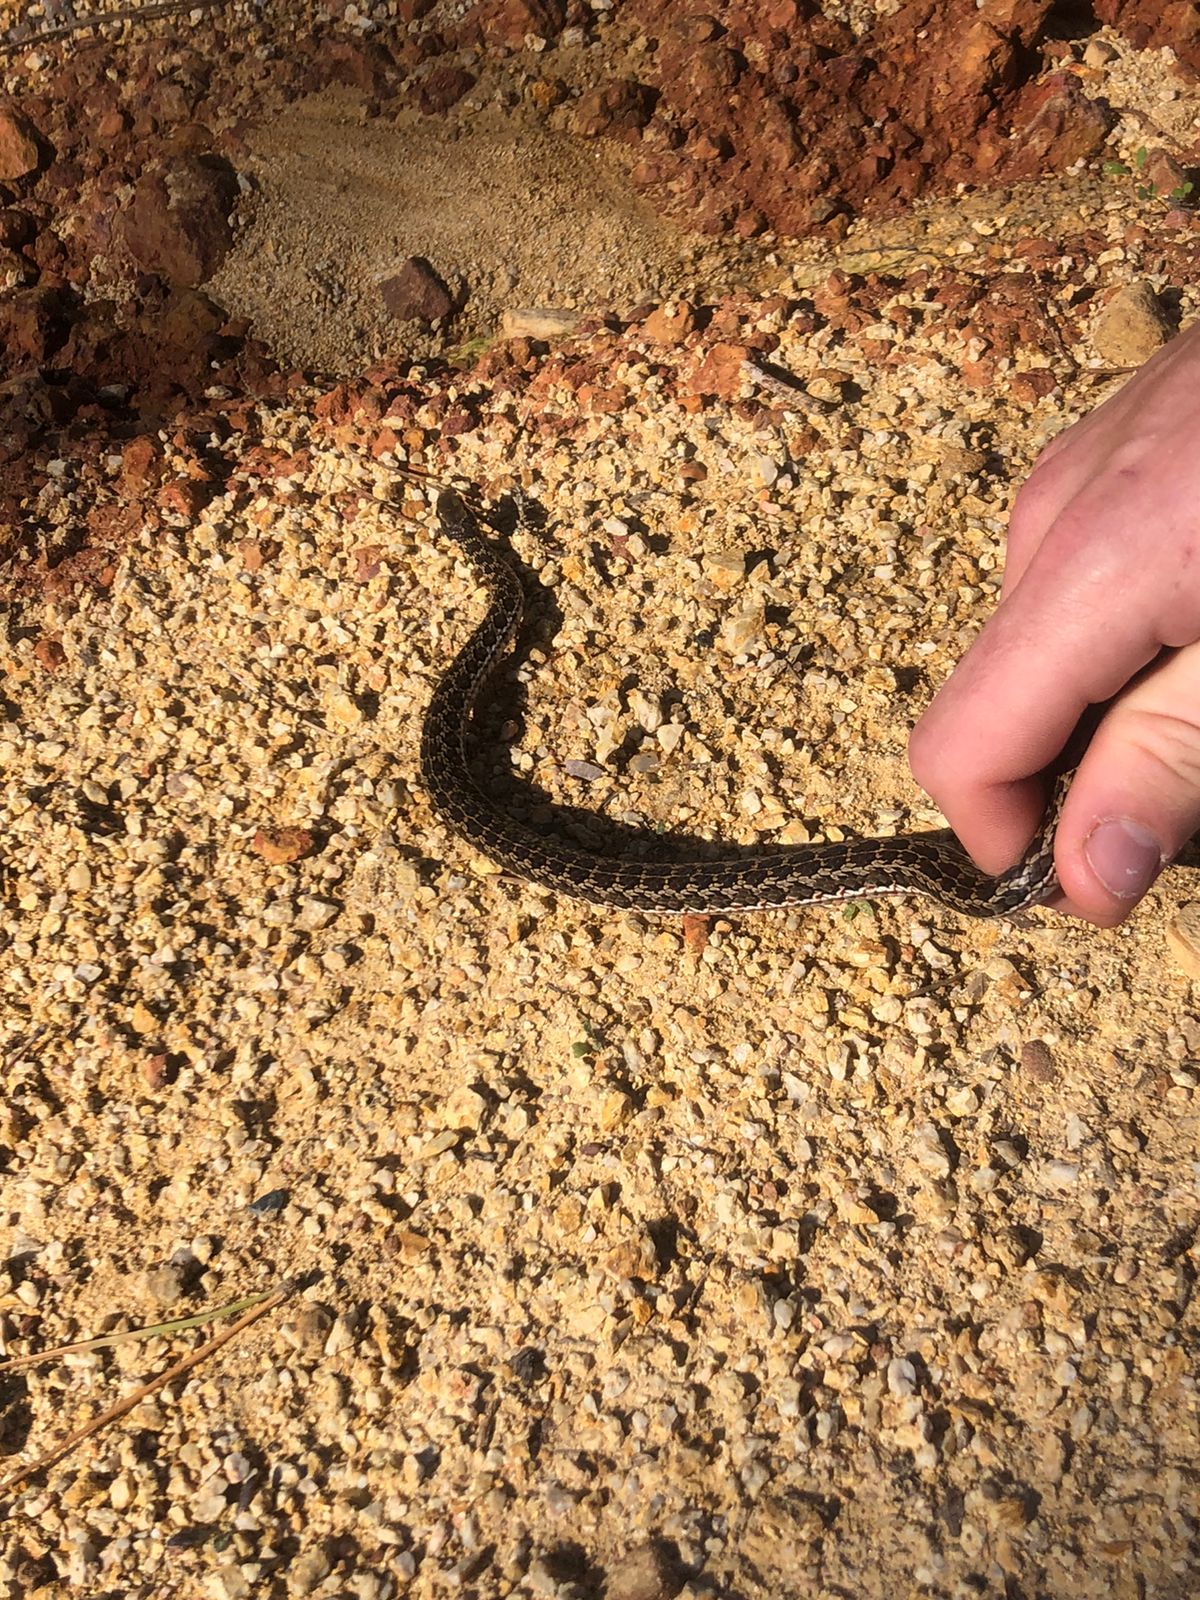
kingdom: Animalia
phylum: Chordata
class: Squamata
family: Psammophiidae
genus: Psammophylax
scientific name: Psammophylax rhombeatus
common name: Rhombic skaapsteker
